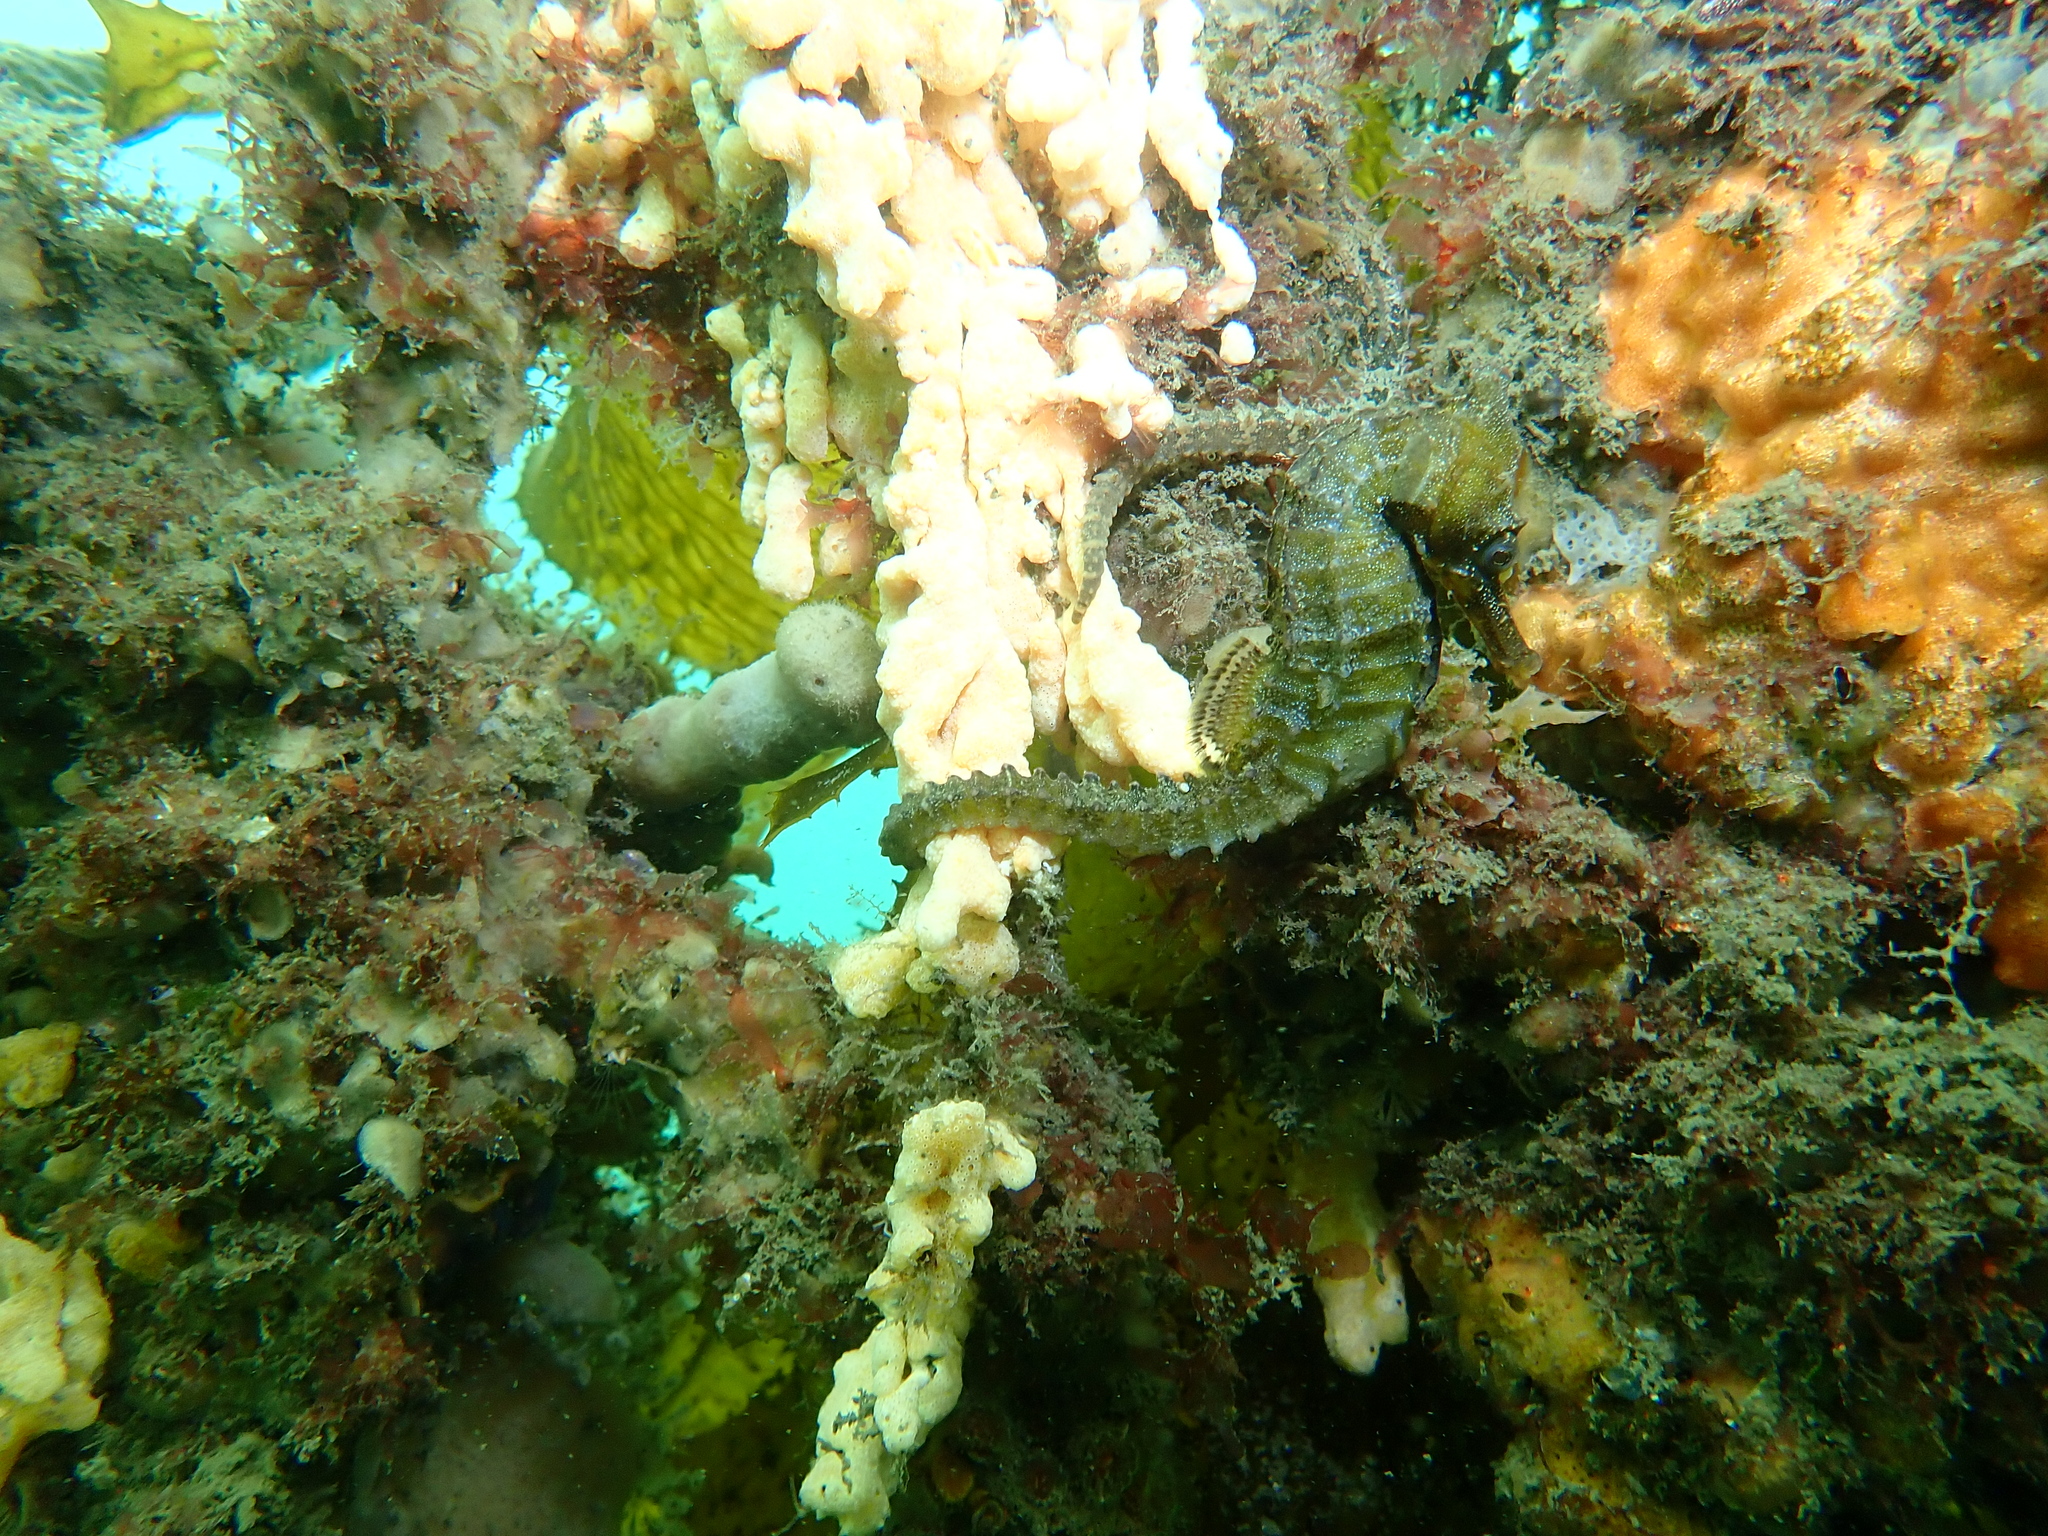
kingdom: Animalia
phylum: Chordata
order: Syngnathiformes
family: Syngnathidae
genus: Hippocampus
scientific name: Hippocampus whitei
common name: New holland seahorse
